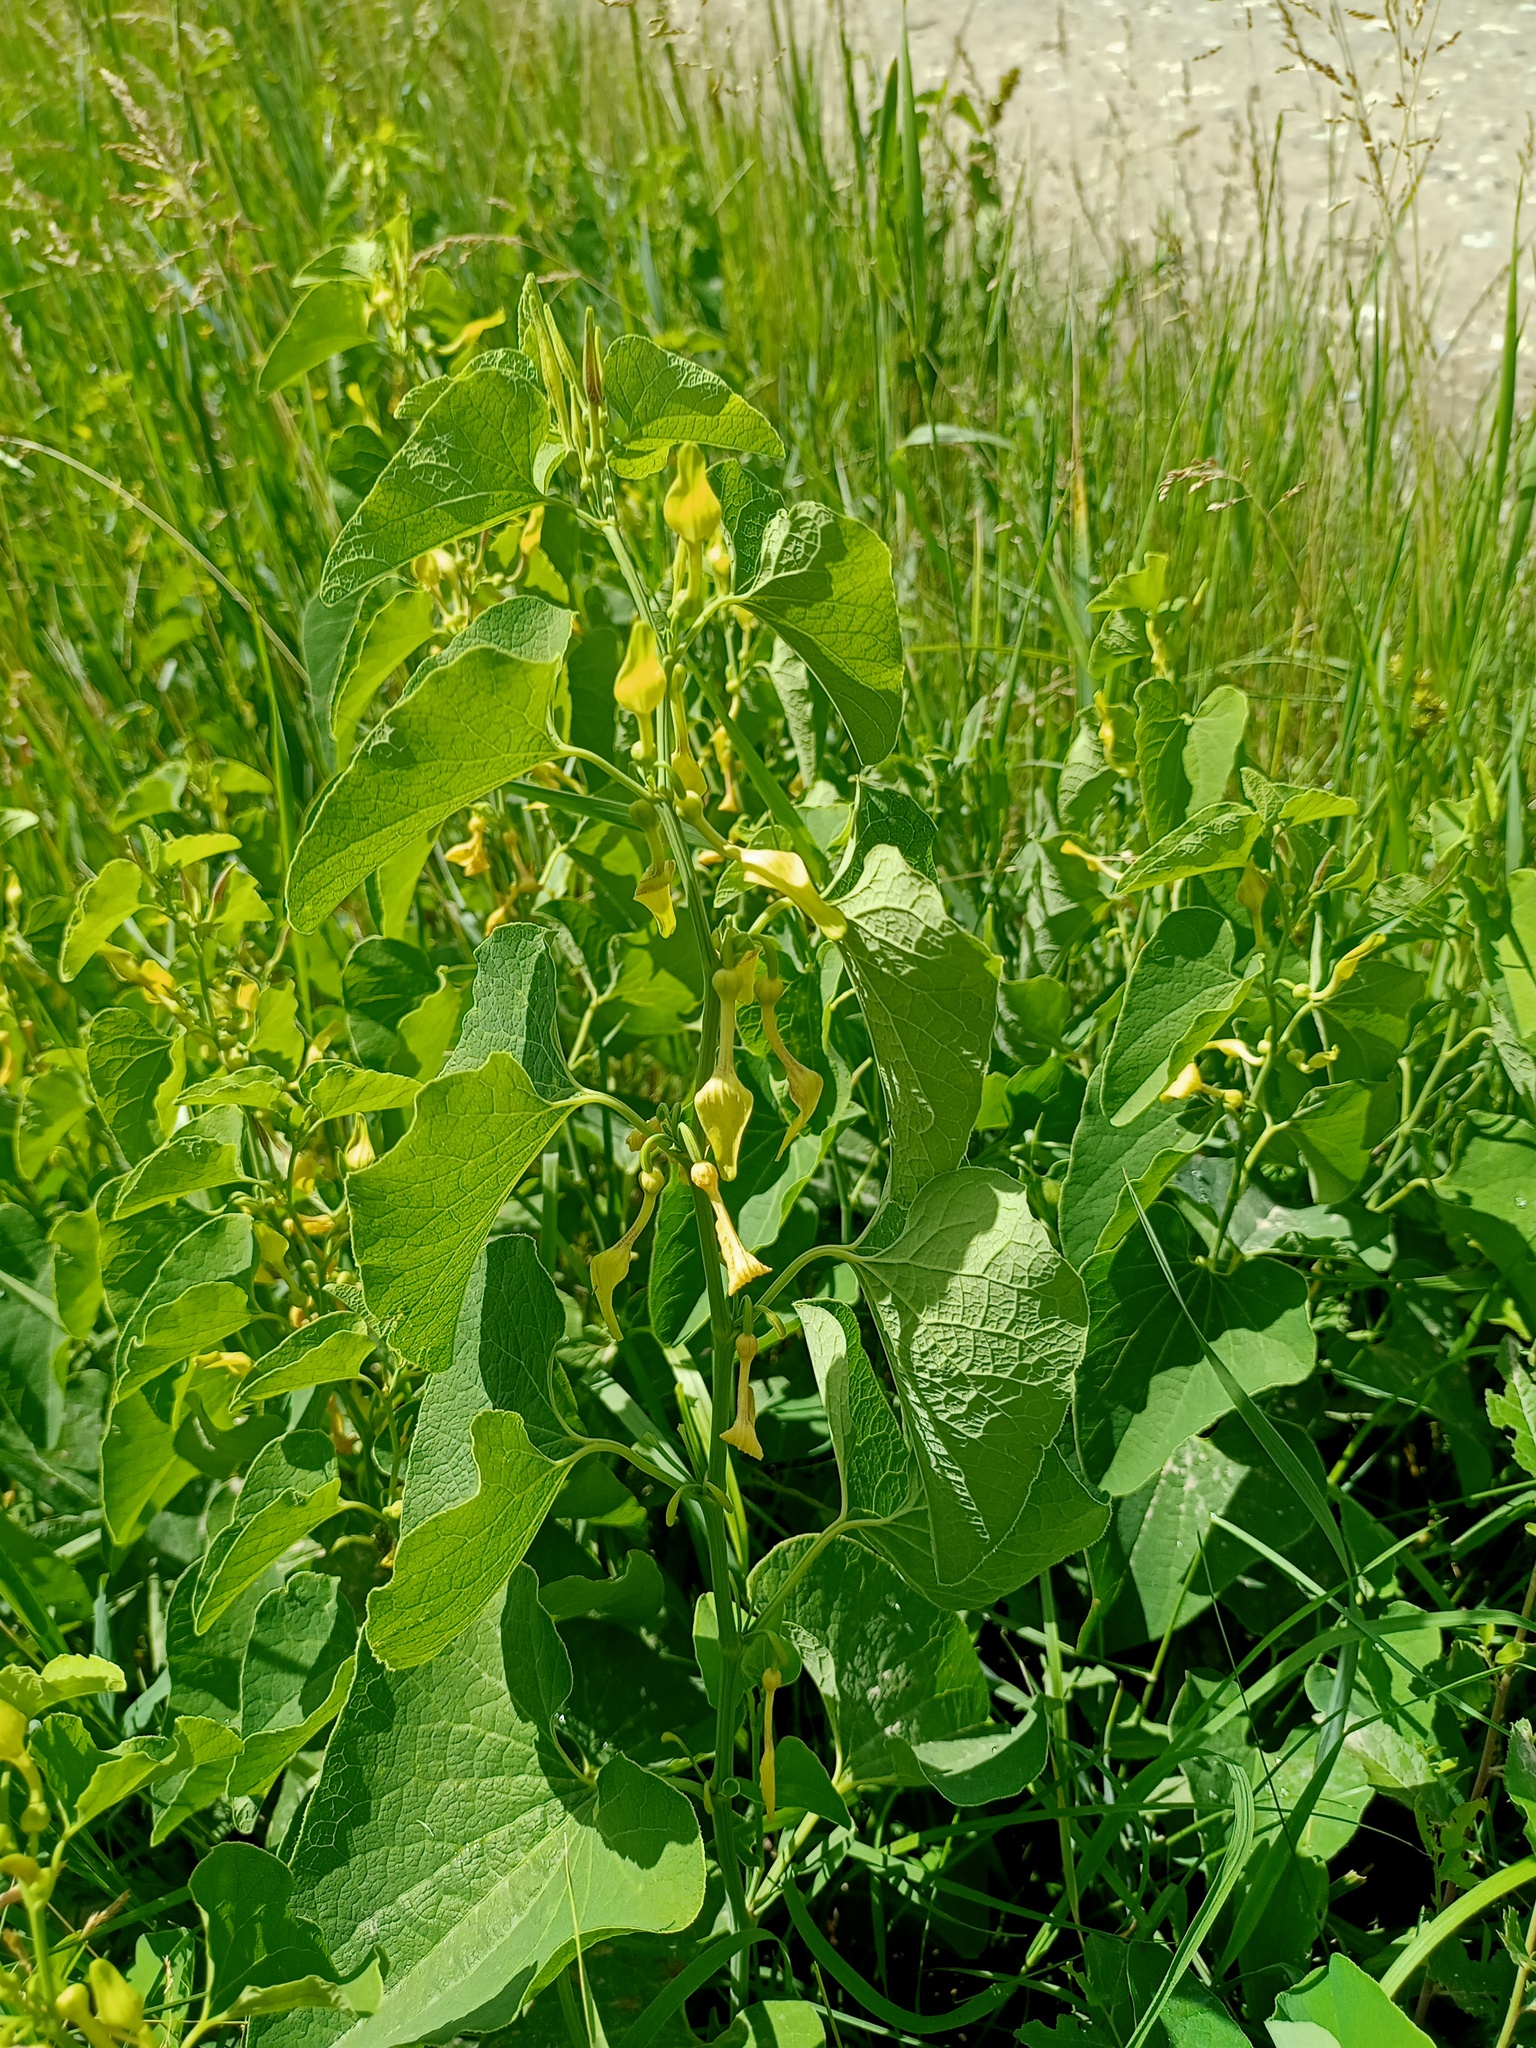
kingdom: Plantae
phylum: Tracheophyta
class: Magnoliopsida
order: Piperales
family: Aristolochiaceae
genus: Aristolochia
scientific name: Aristolochia clematitis
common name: Birthwort
